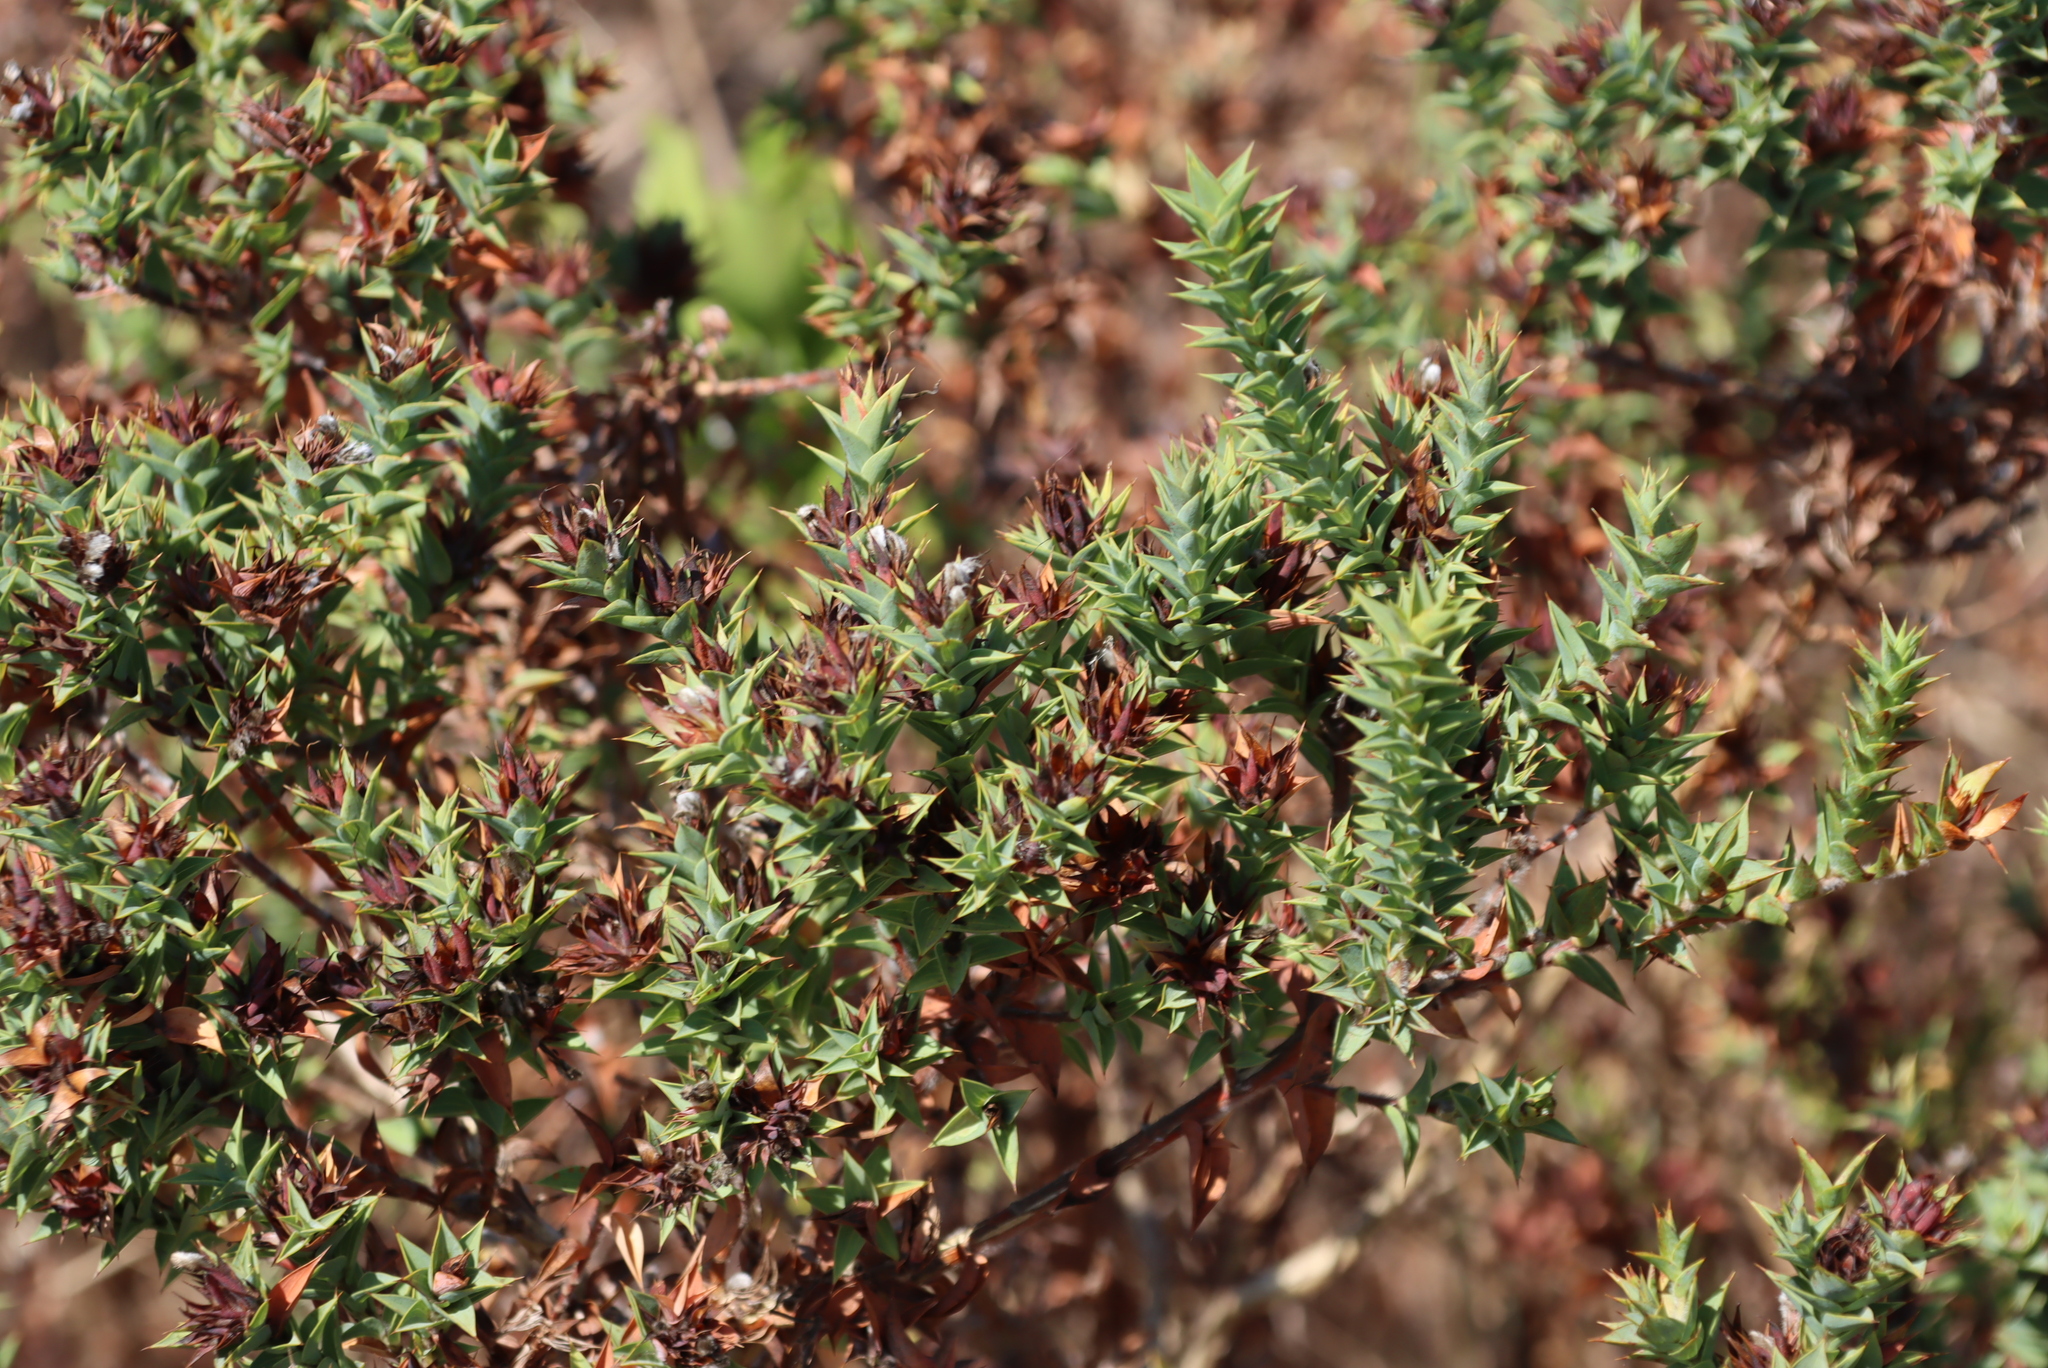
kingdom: Plantae
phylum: Tracheophyta
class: Magnoliopsida
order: Fabales
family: Fabaceae
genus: Aspalathus
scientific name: Aspalathus cordata
